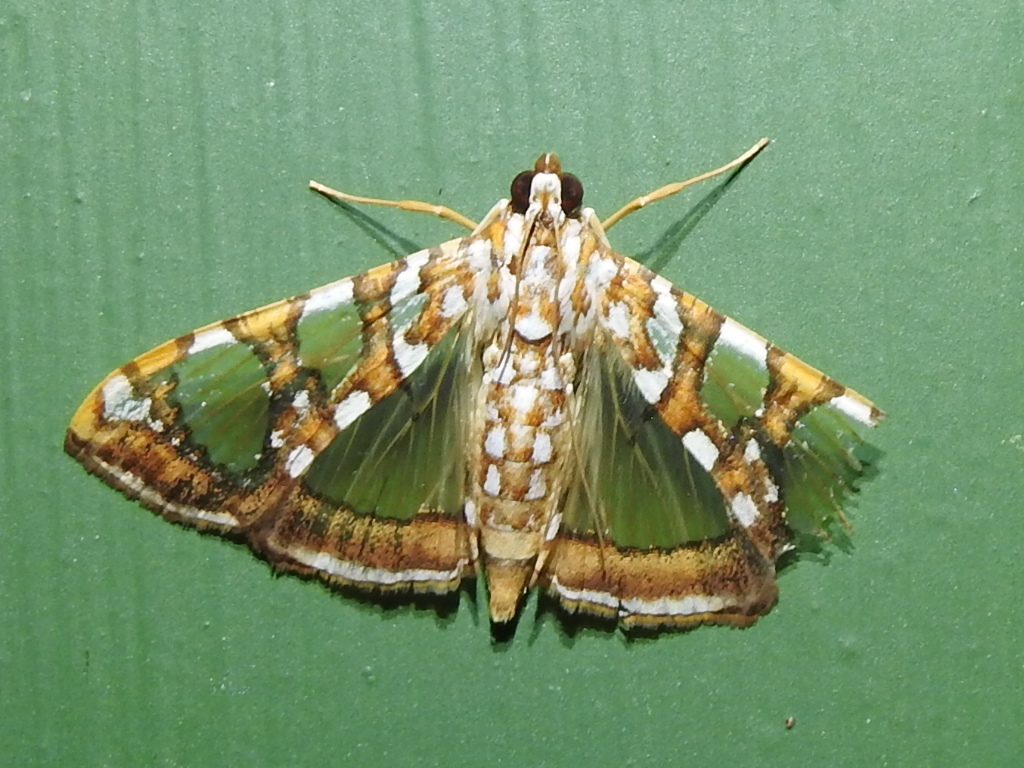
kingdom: Animalia
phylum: Arthropoda
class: Insecta
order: Lepidoptera
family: Crambidae
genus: Glyphodes
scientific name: Glyphodes sibillalis
